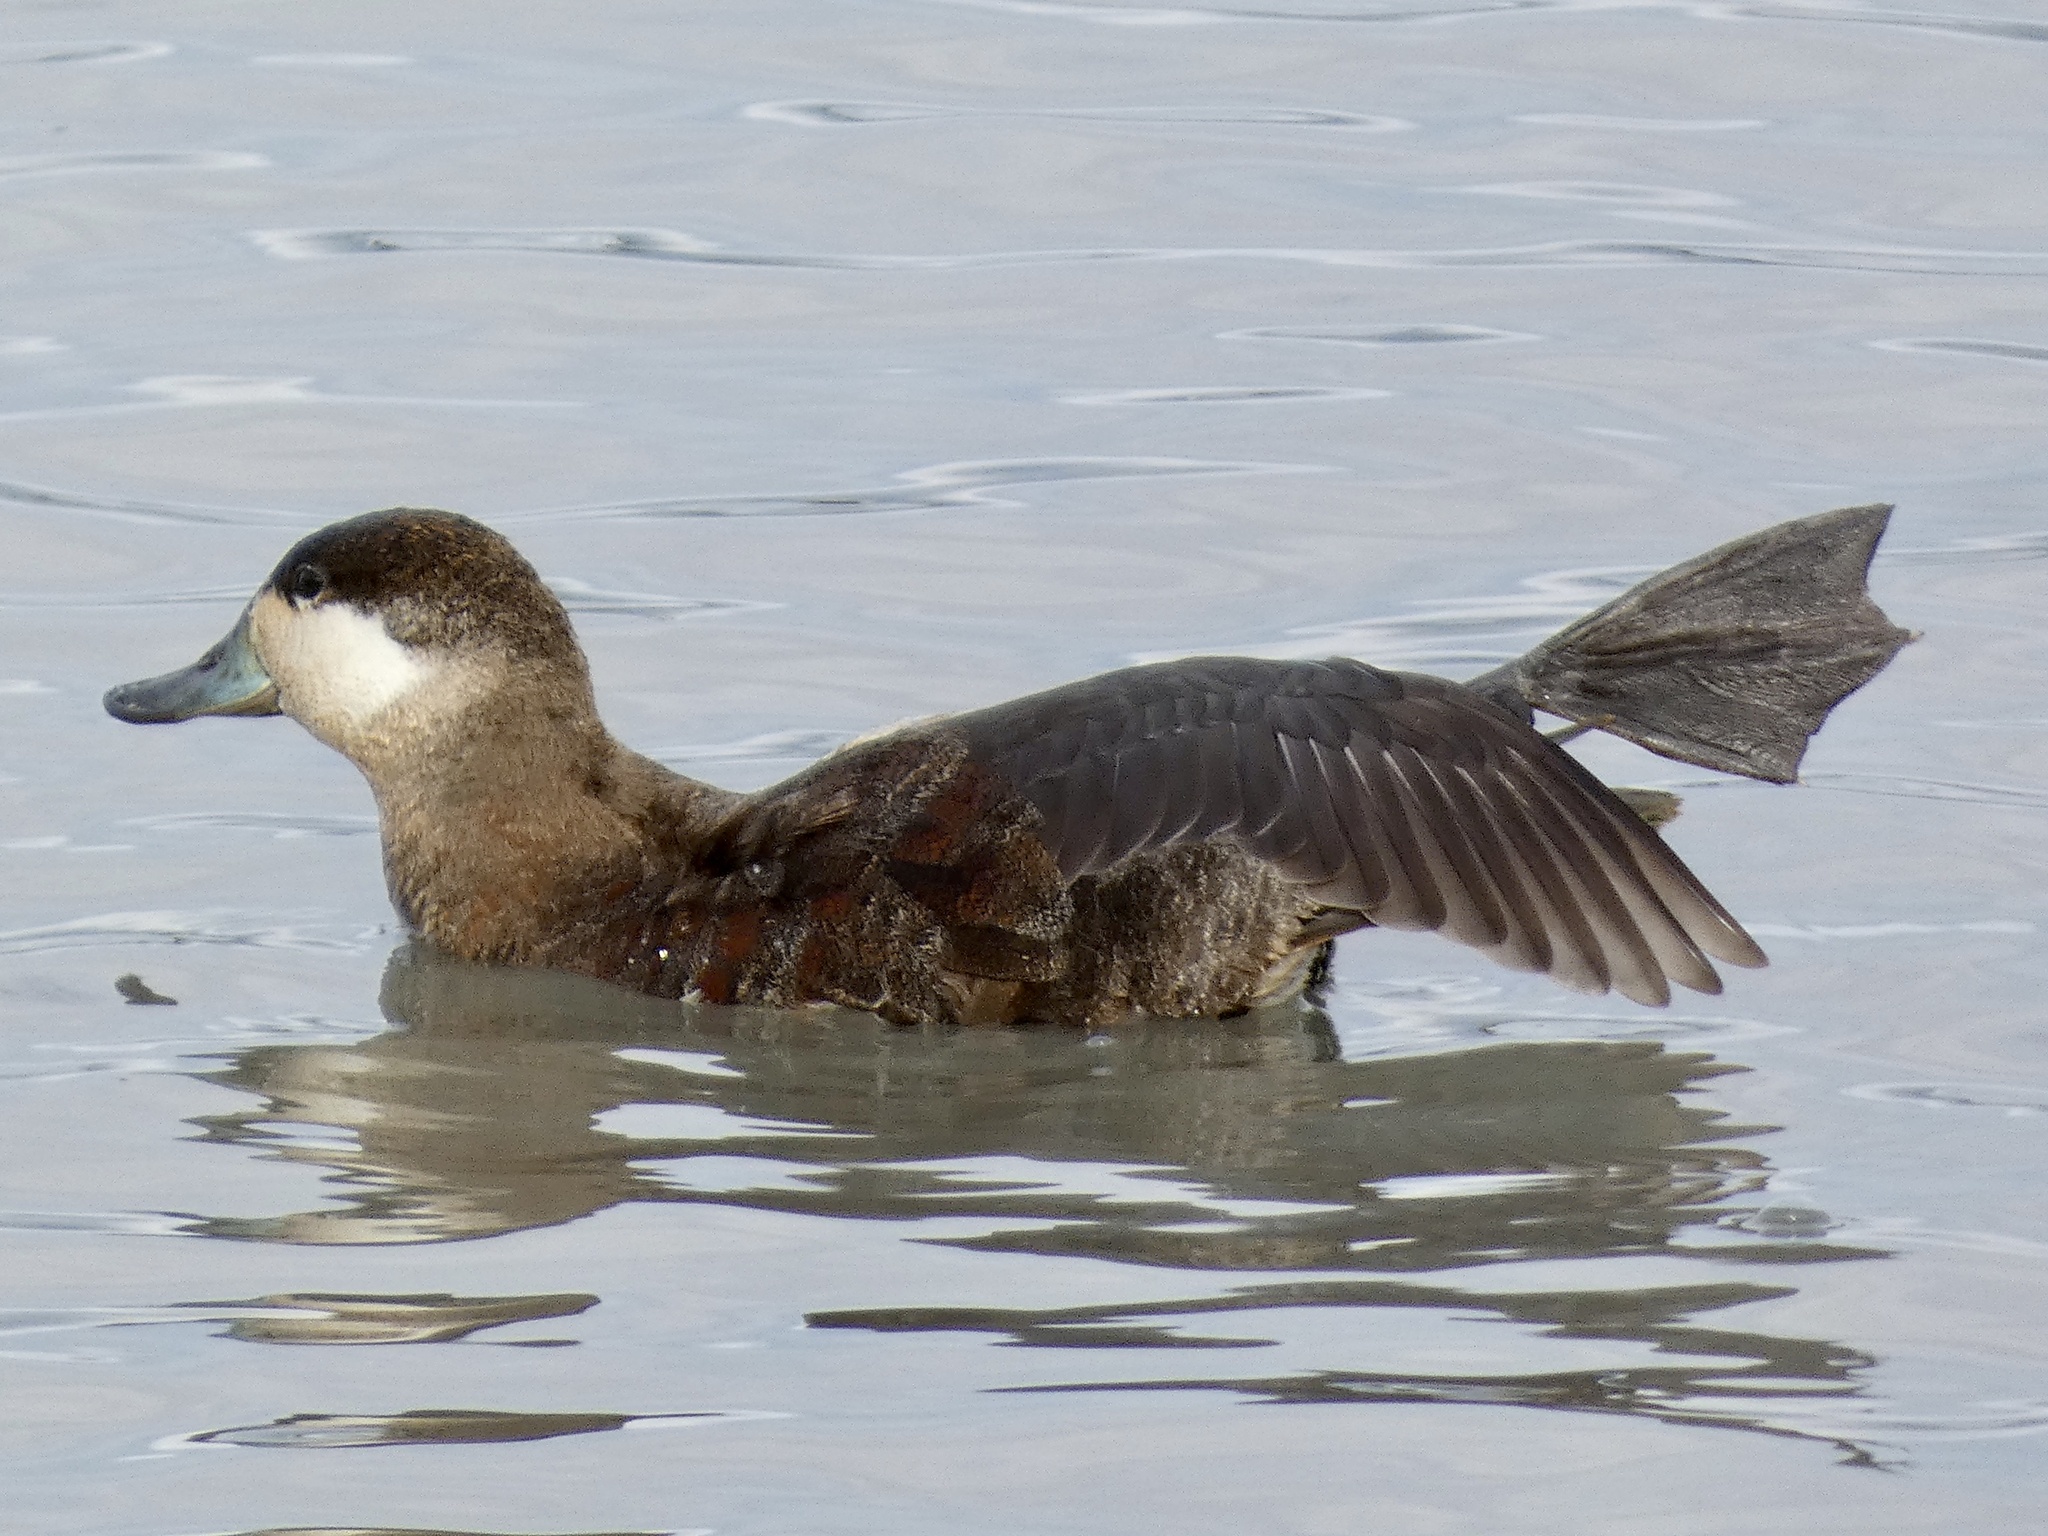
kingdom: Animalia
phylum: Chordata
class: Aves
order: Anseriformes
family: Anatidae
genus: Oxyura
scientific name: Oxyura jamaicensis
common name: Ruddy duck
